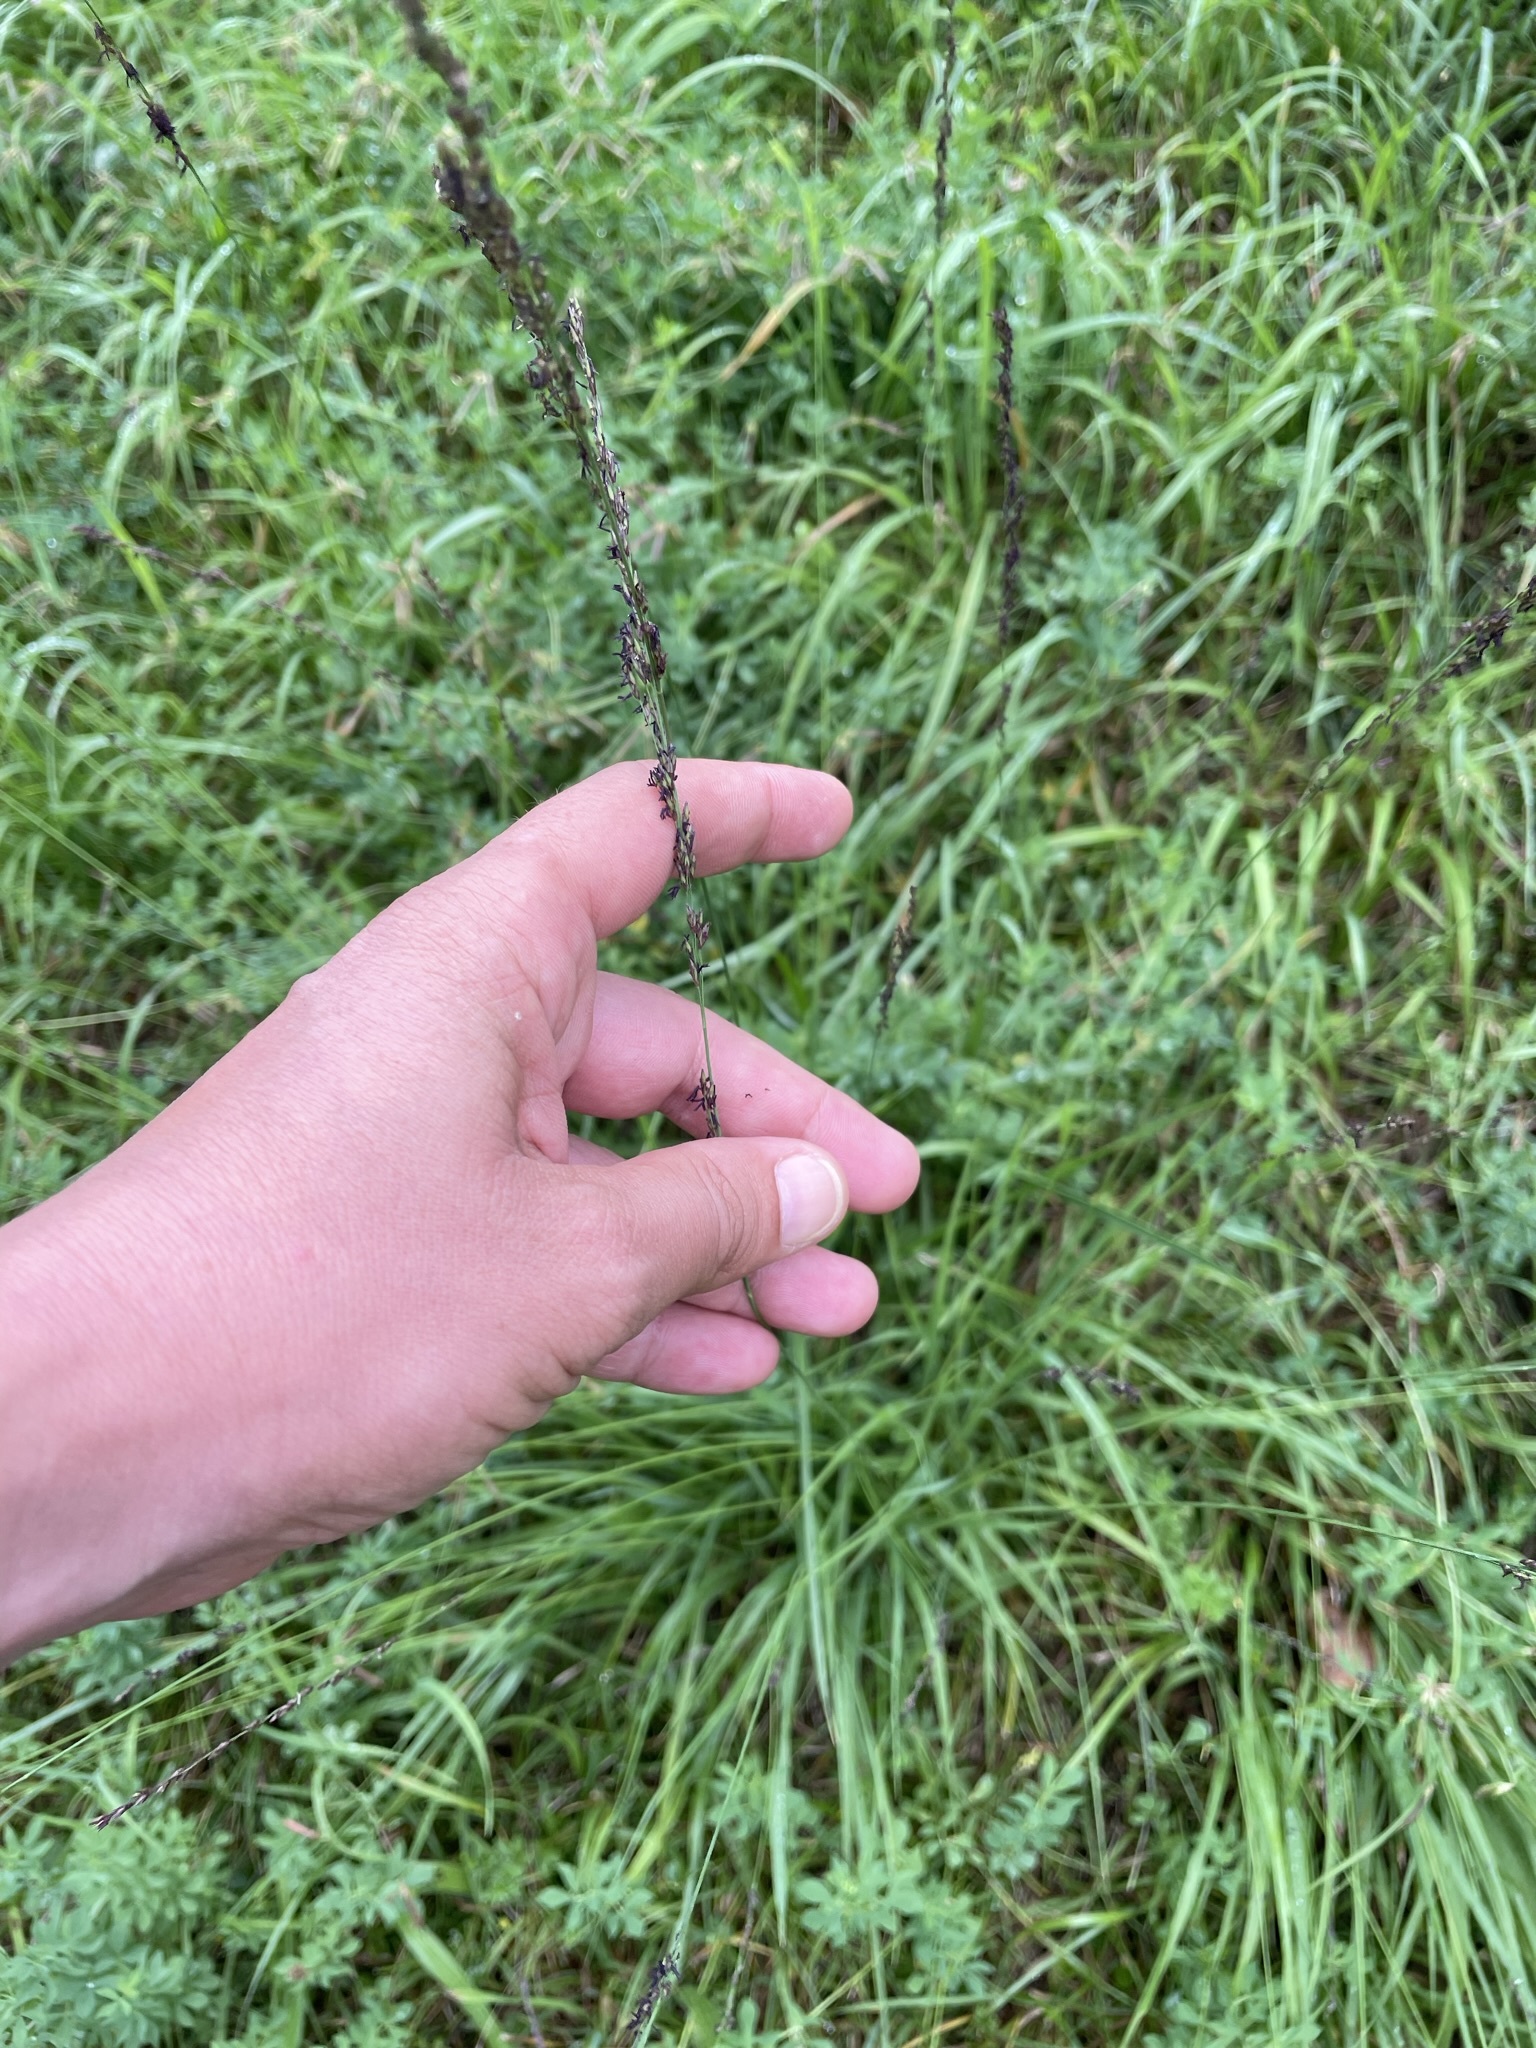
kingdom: Plantae
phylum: Tracheophyta
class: Liliopsida
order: Poales
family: Poaceae
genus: Molinia
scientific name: Molinia caerulea
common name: Purple moor-grass
